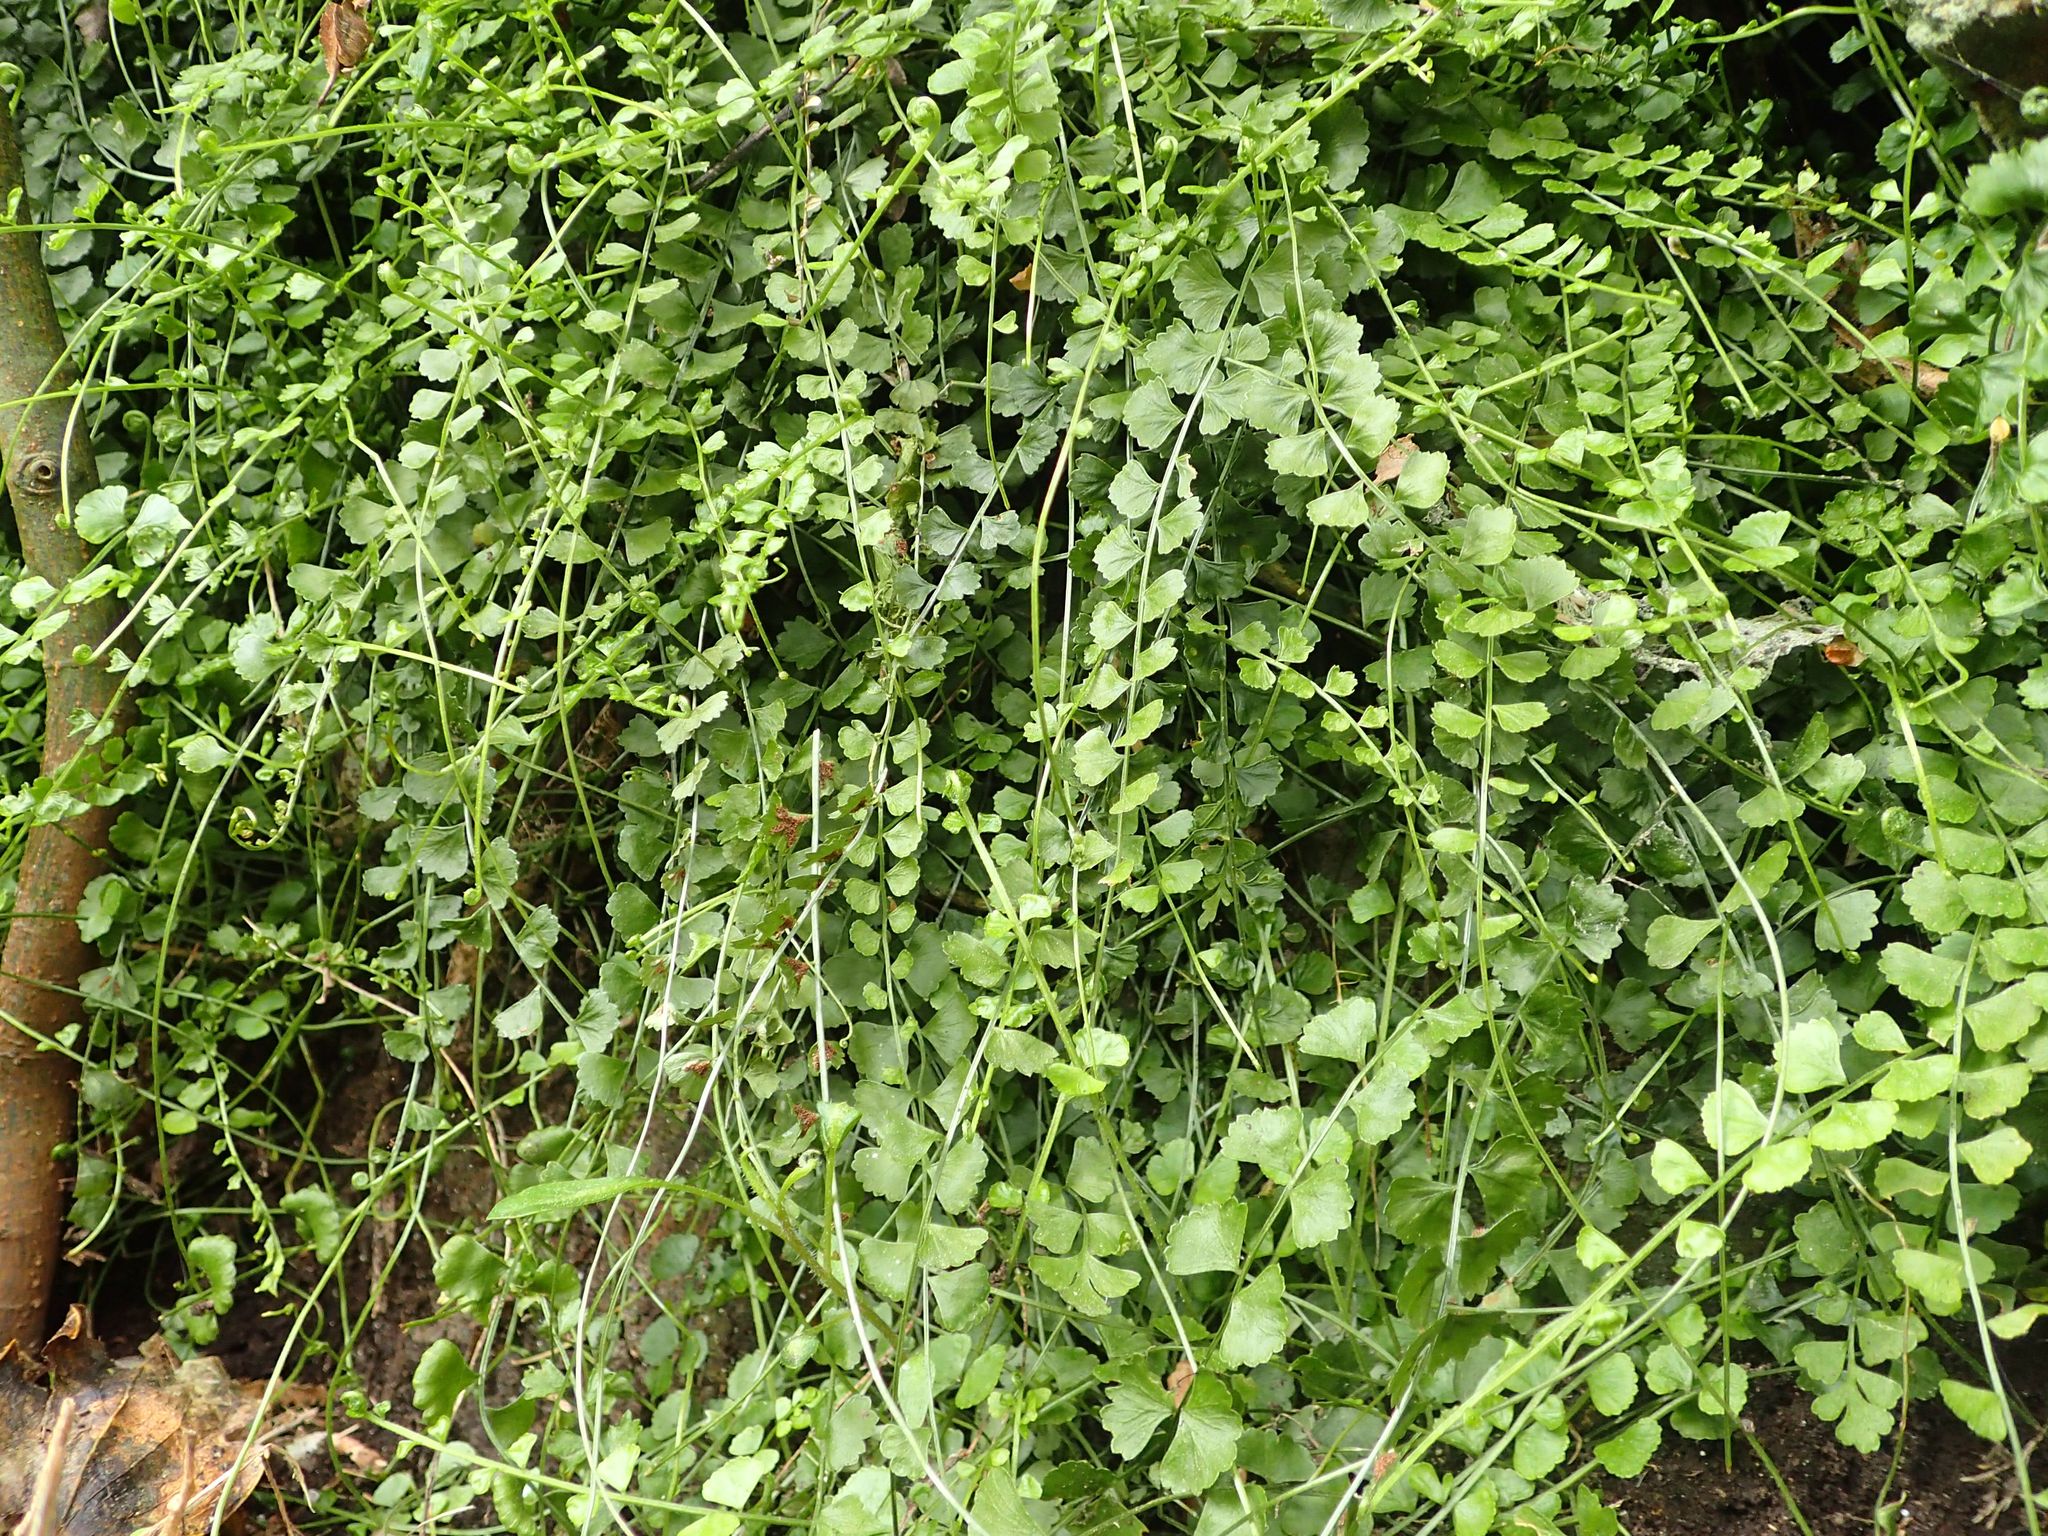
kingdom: Plantae
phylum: Tracheophyta
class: Polypodiopsida
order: Polypodiales
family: Aspleniaceae
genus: Asplenium
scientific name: Asplenium flabellifolium
